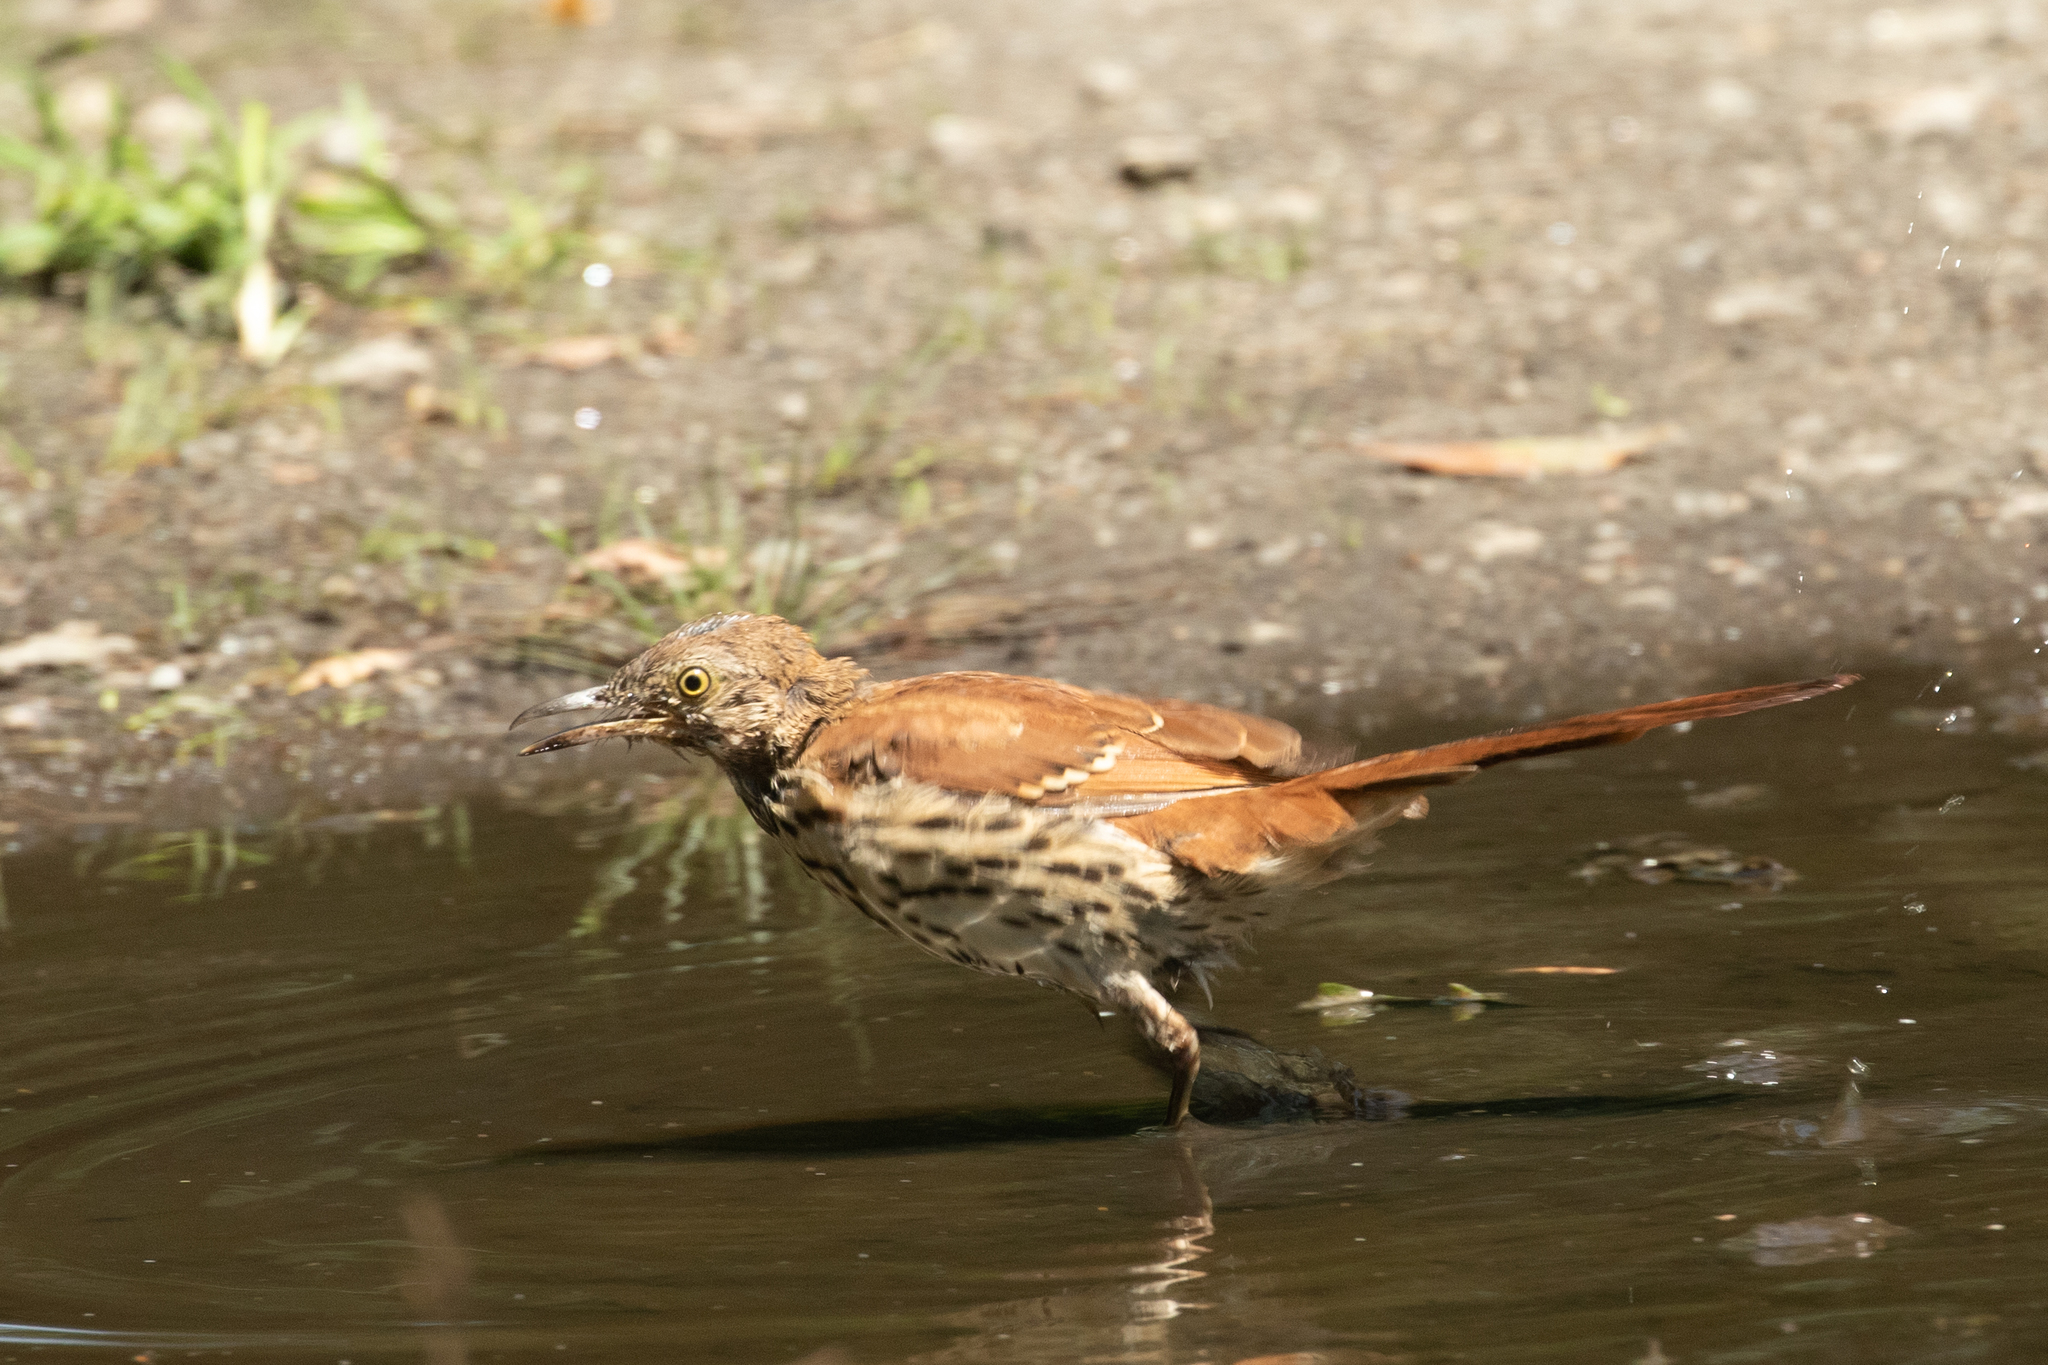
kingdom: Animalia
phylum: Chordata
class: Aves
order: Passeriformes
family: Mimidae
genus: Toxostoma
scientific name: Toxostoma rufum
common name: Brown thrasher
